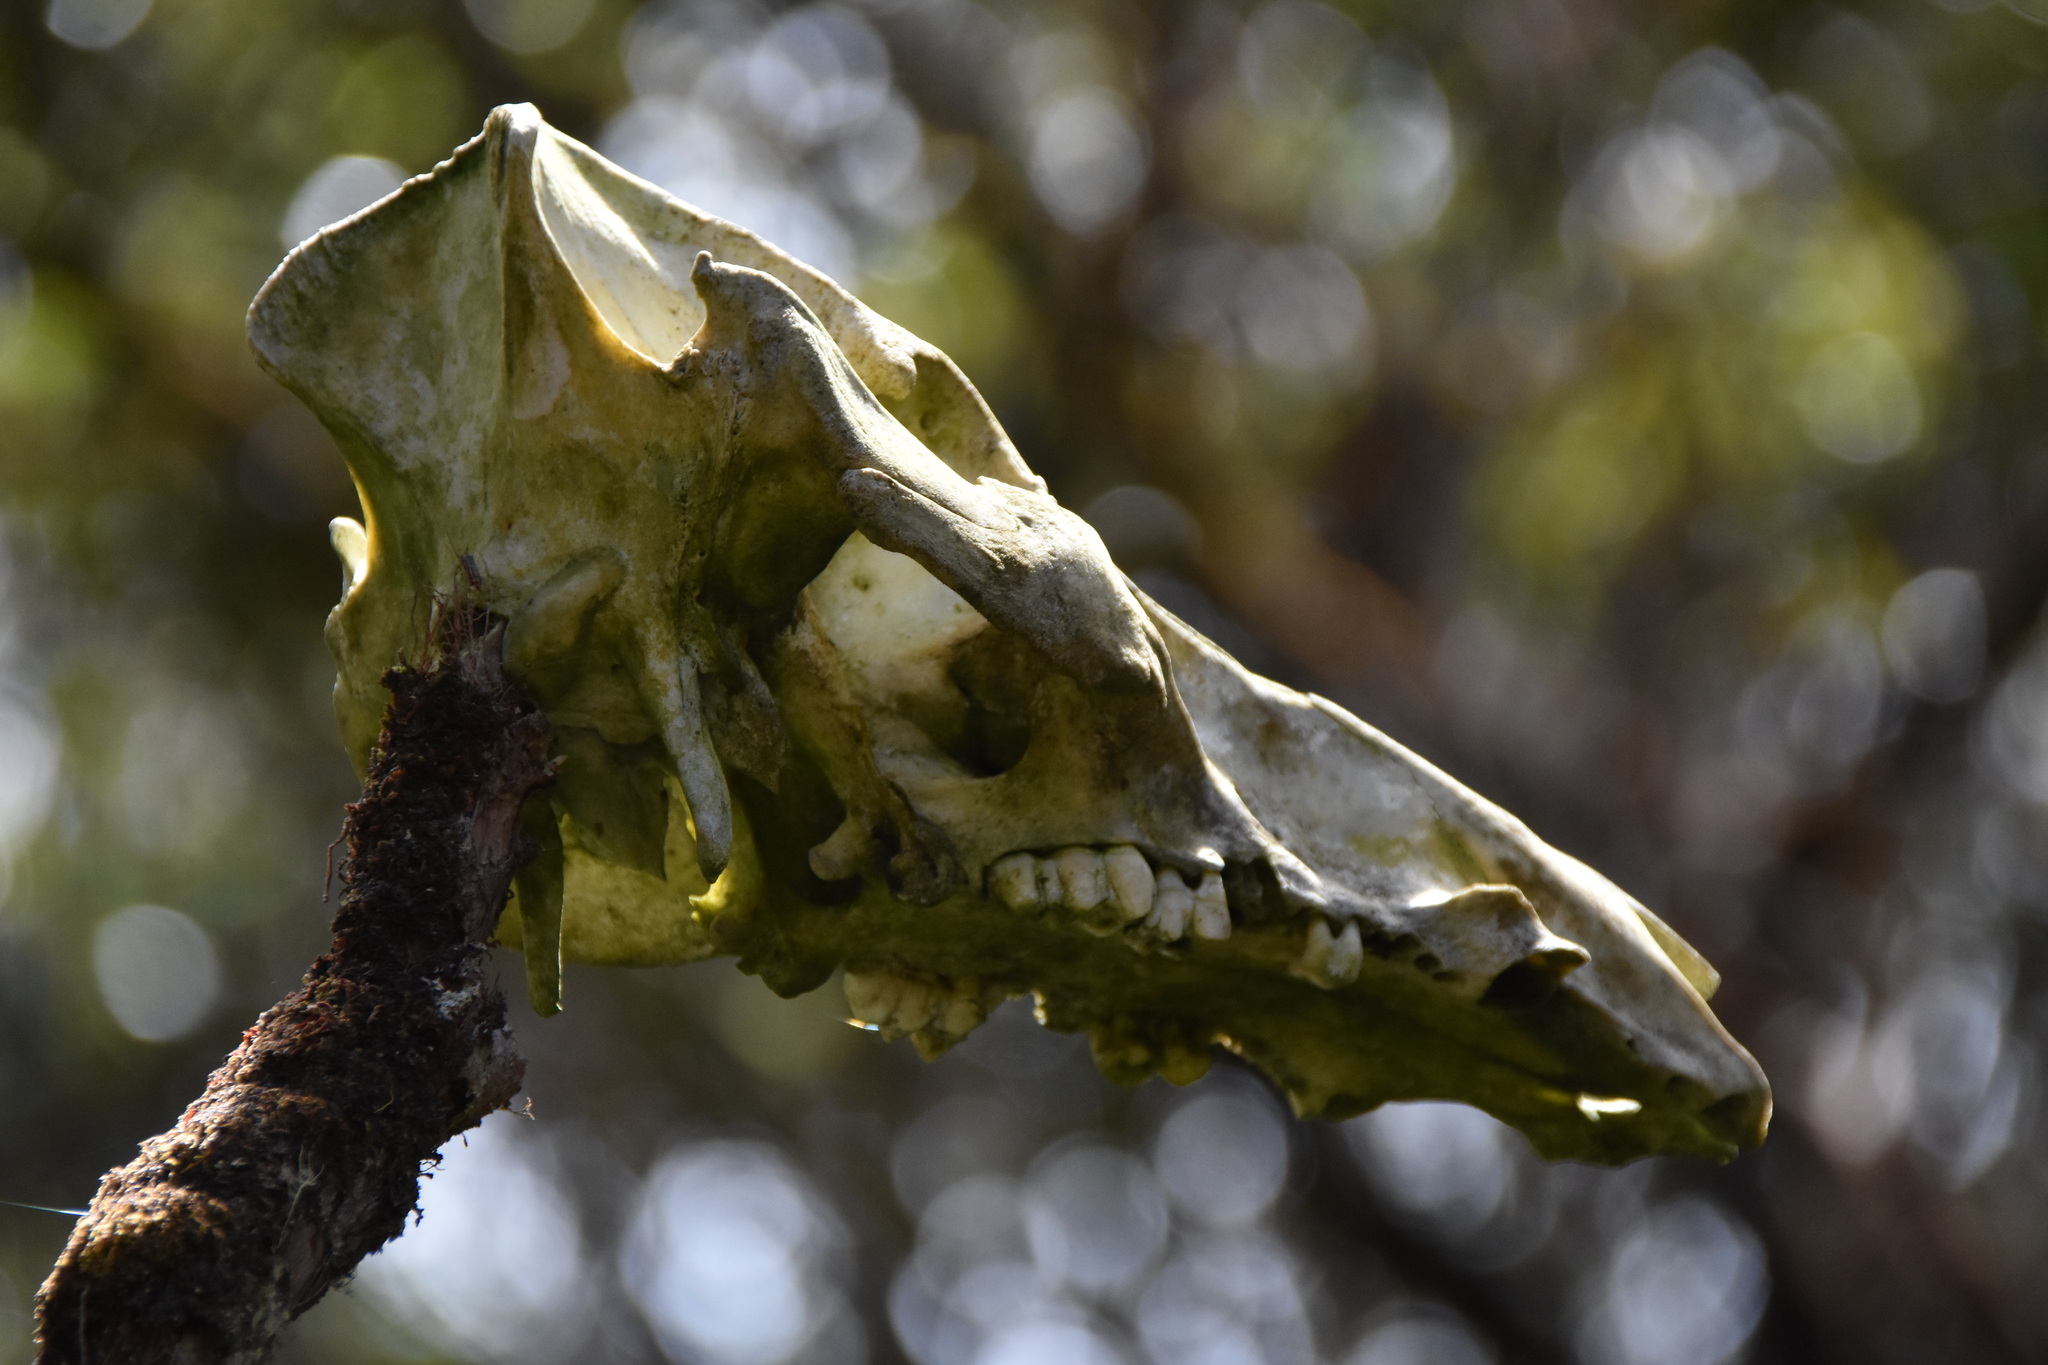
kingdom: Animalia
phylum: Chordata
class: Mammalia
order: Artiodactyla
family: Suidae
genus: Sus
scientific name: Sus scrofa
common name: Wild boar
